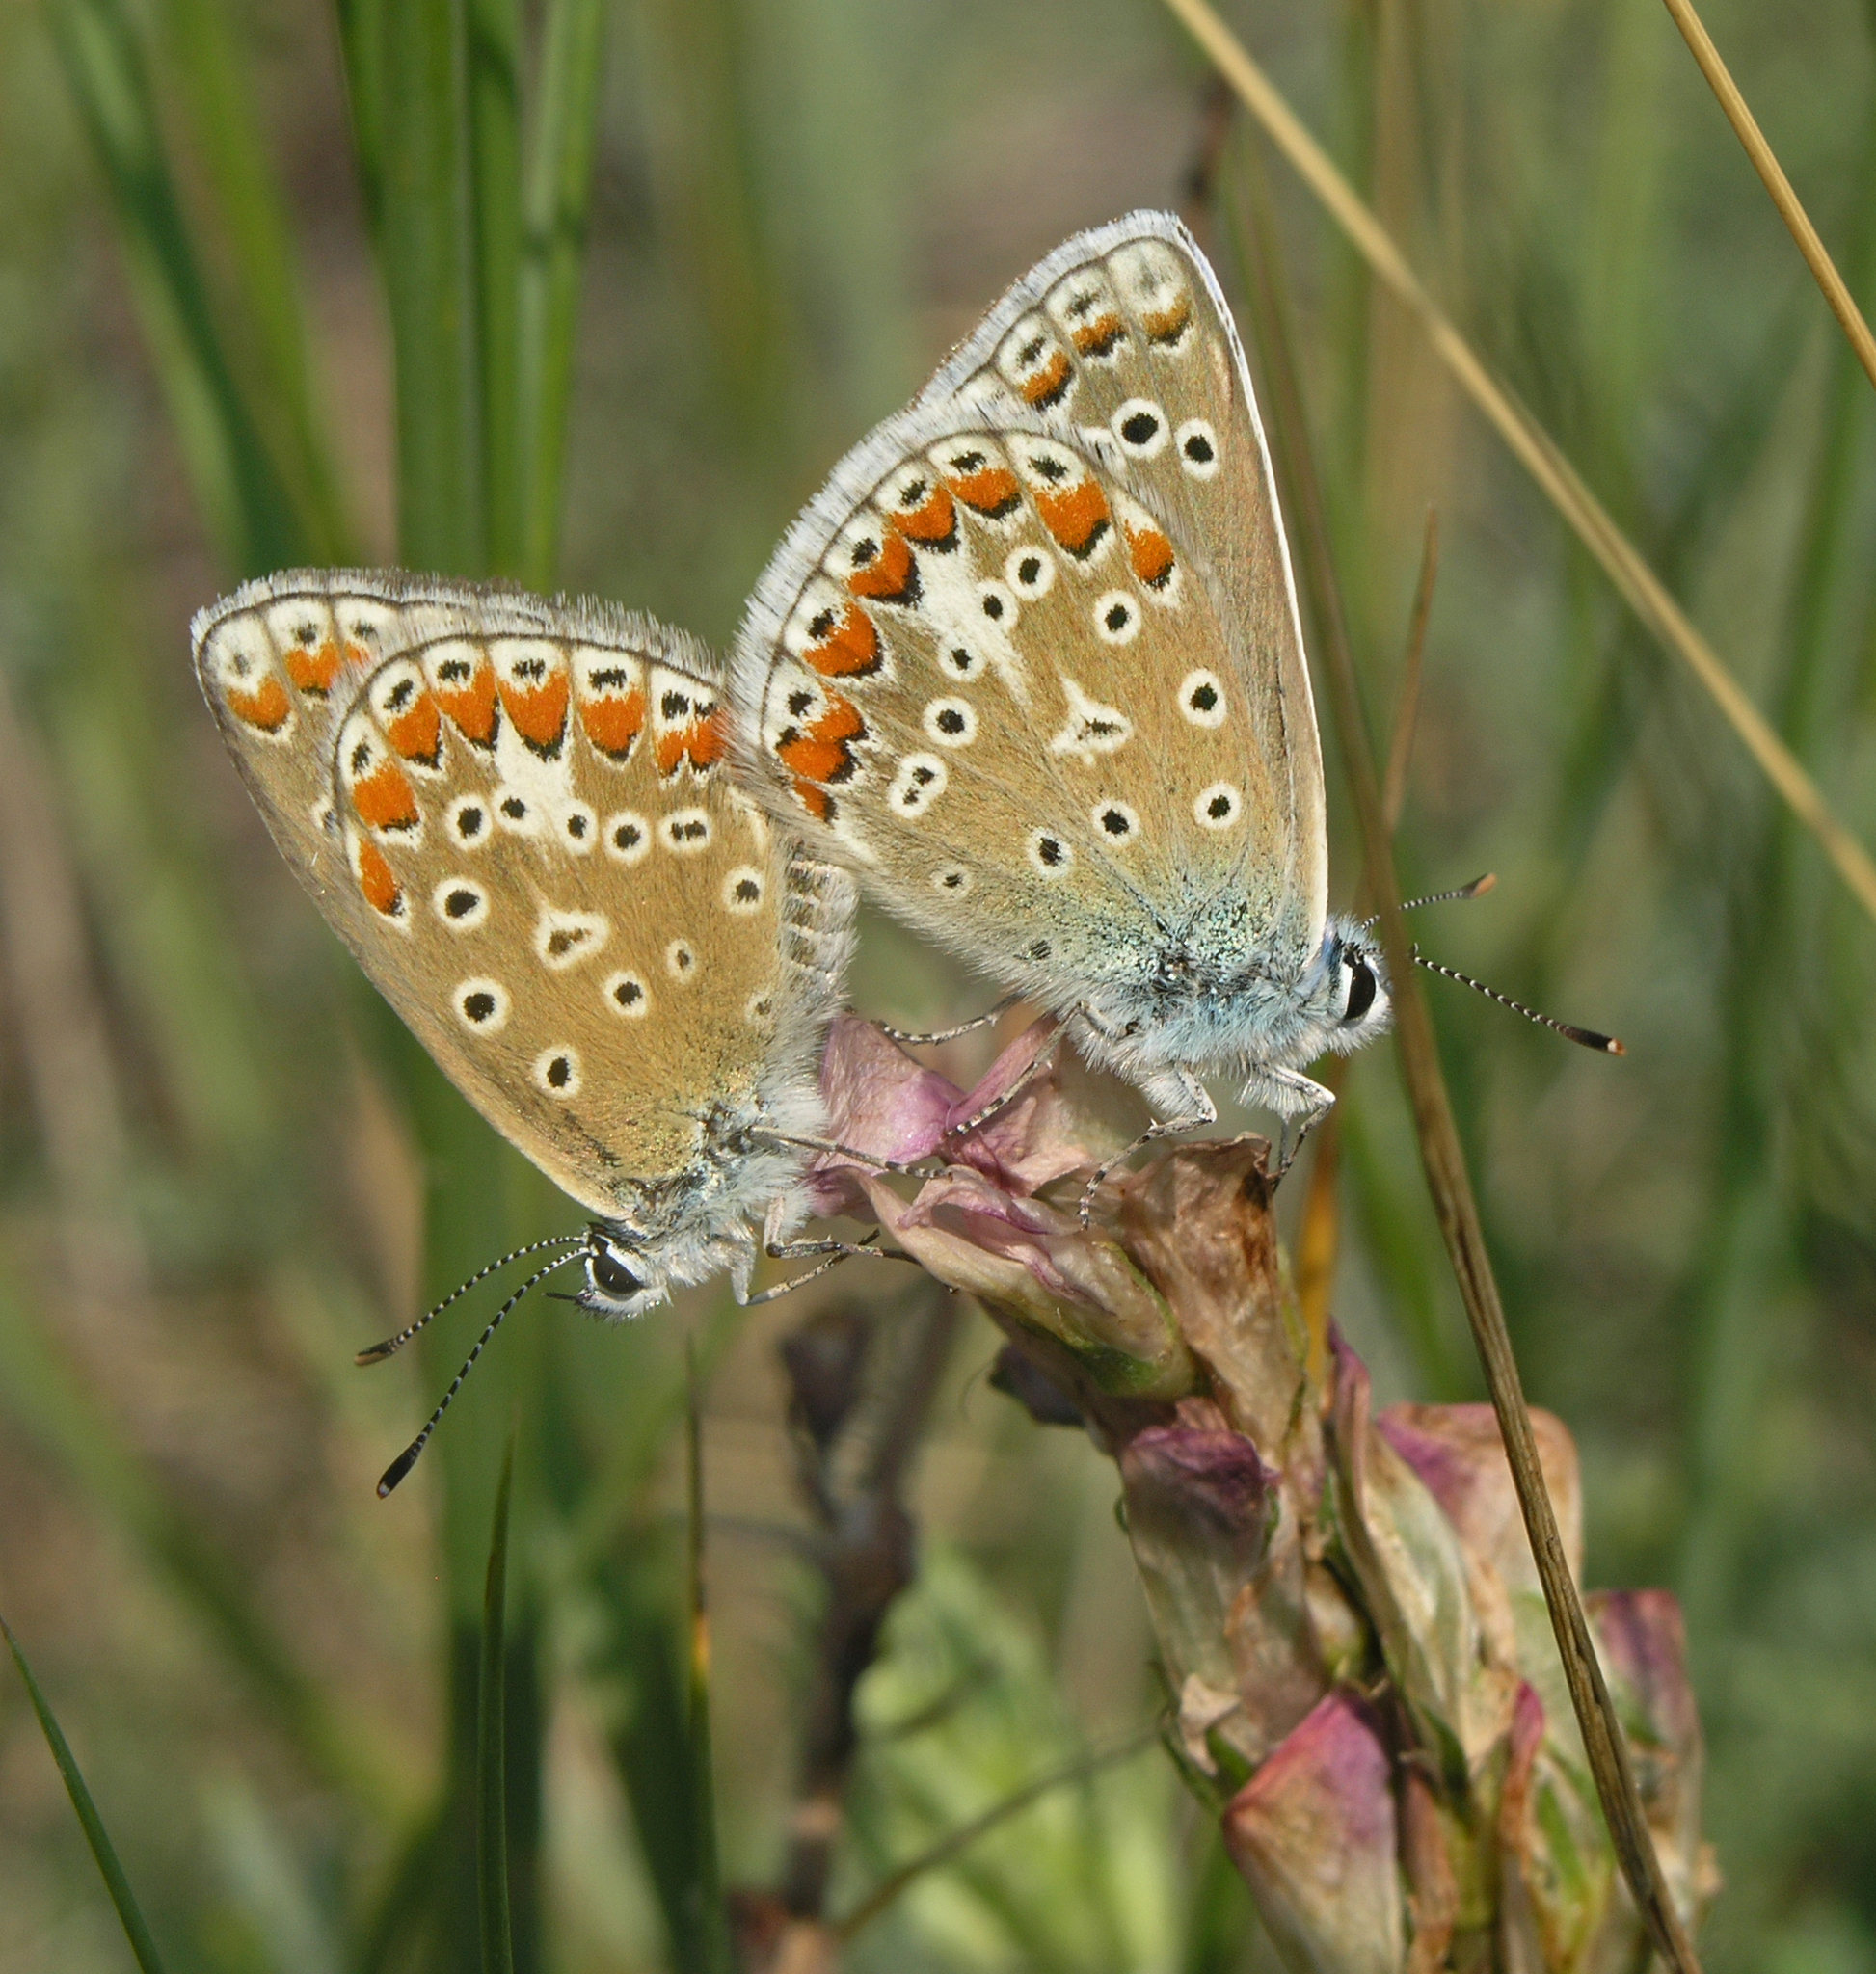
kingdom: Animalia
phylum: Arthropoda
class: Insecta
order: Lepidoptera
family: Lycaenidae
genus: Polyommatus
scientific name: Polyommatus thersites
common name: Chapman's blue
